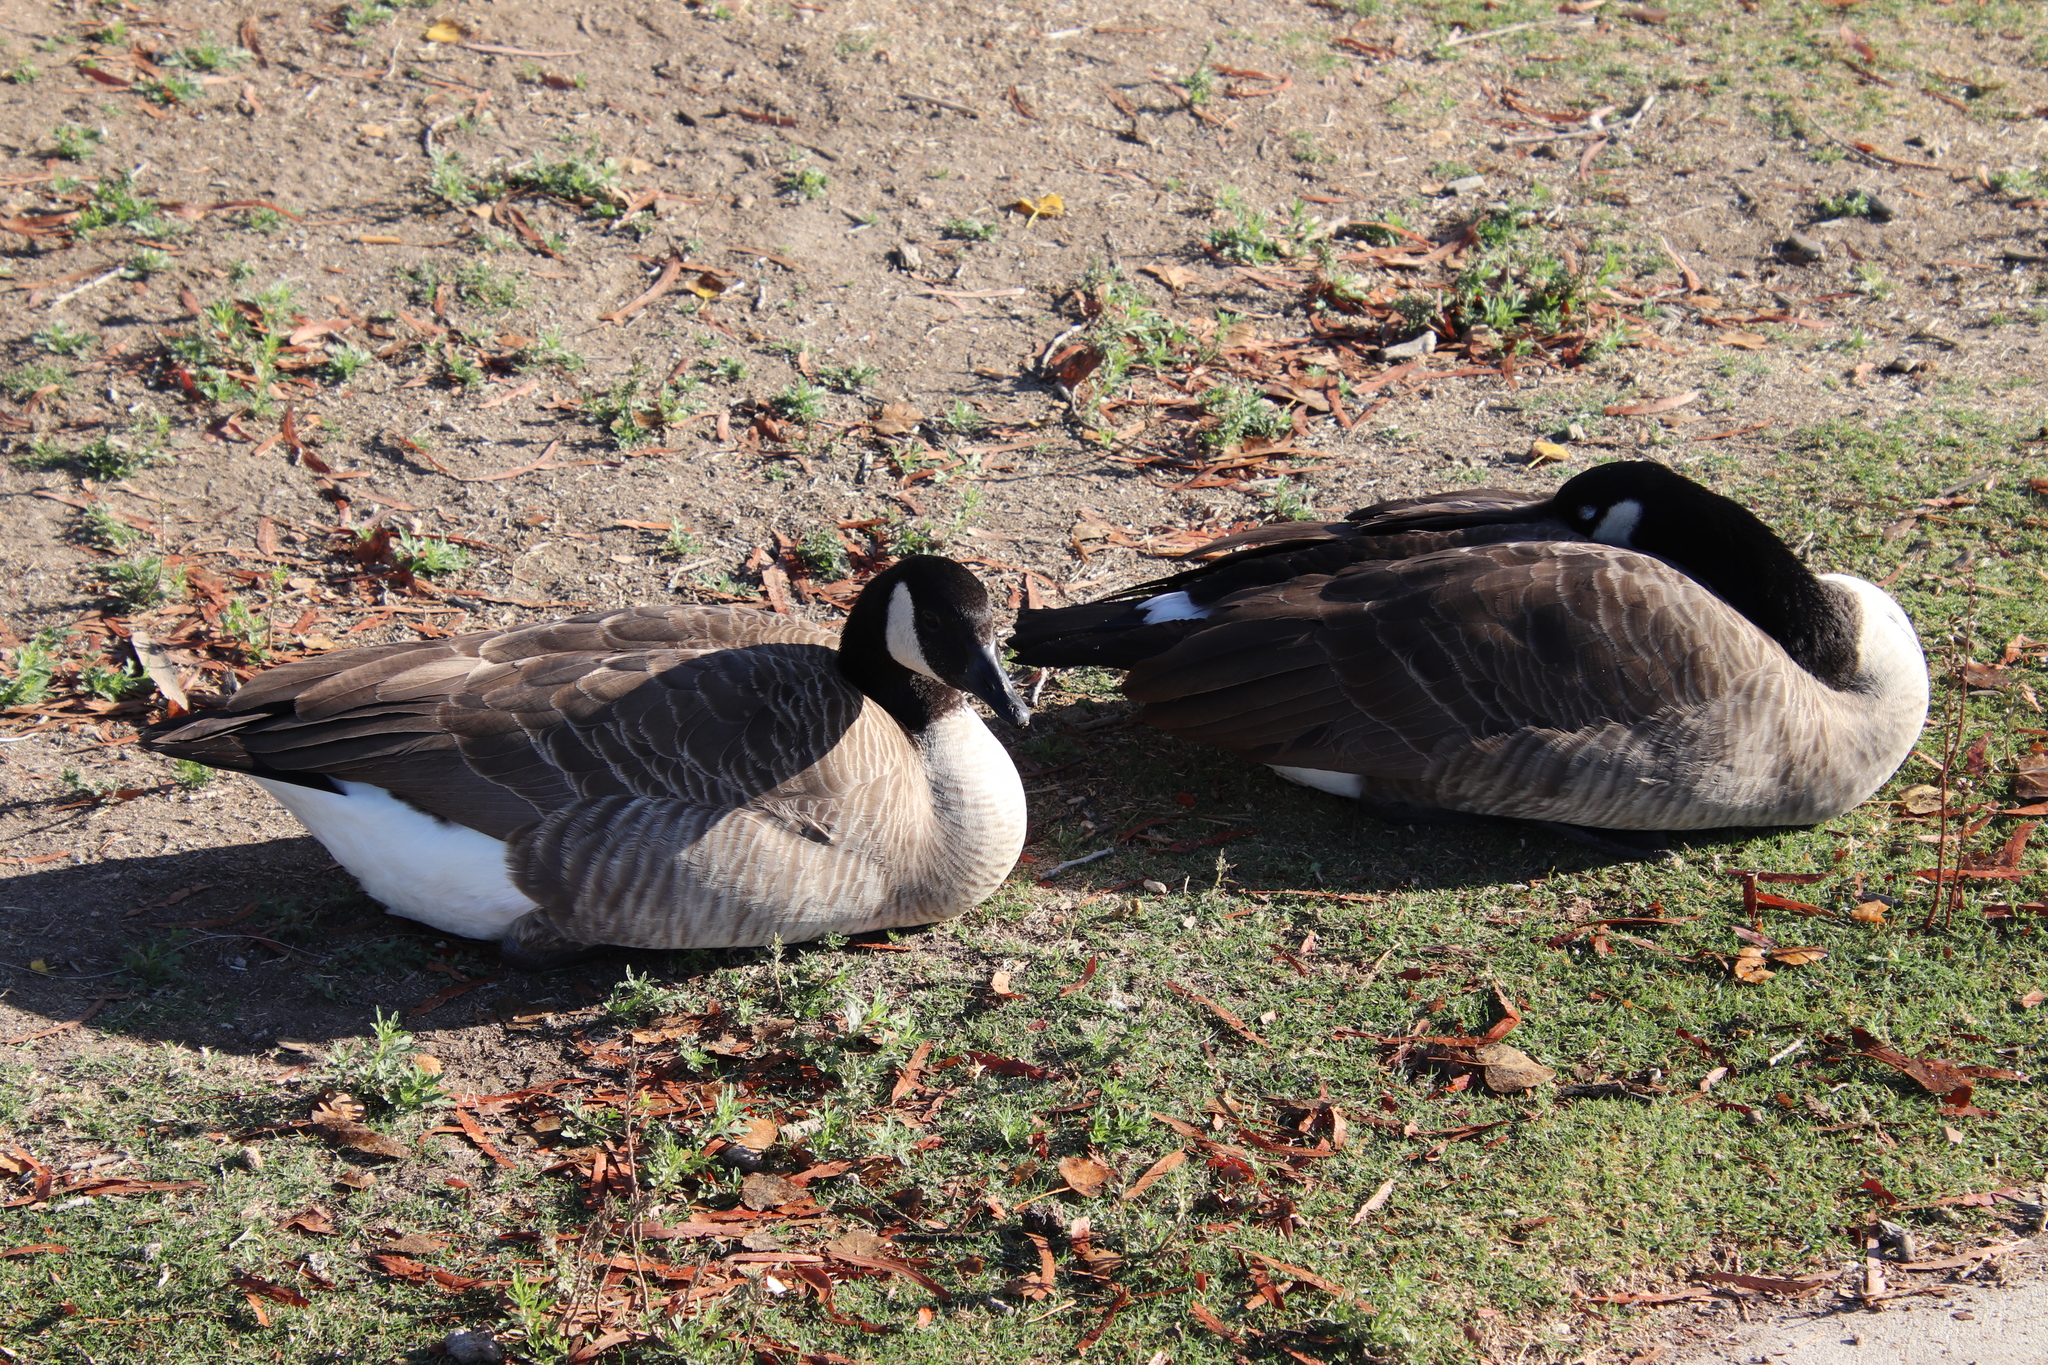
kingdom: Animalia
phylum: Chordata
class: Aves
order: Anseriformes
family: Anatidae
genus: Branta
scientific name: Branta canadensis
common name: Canada goose
